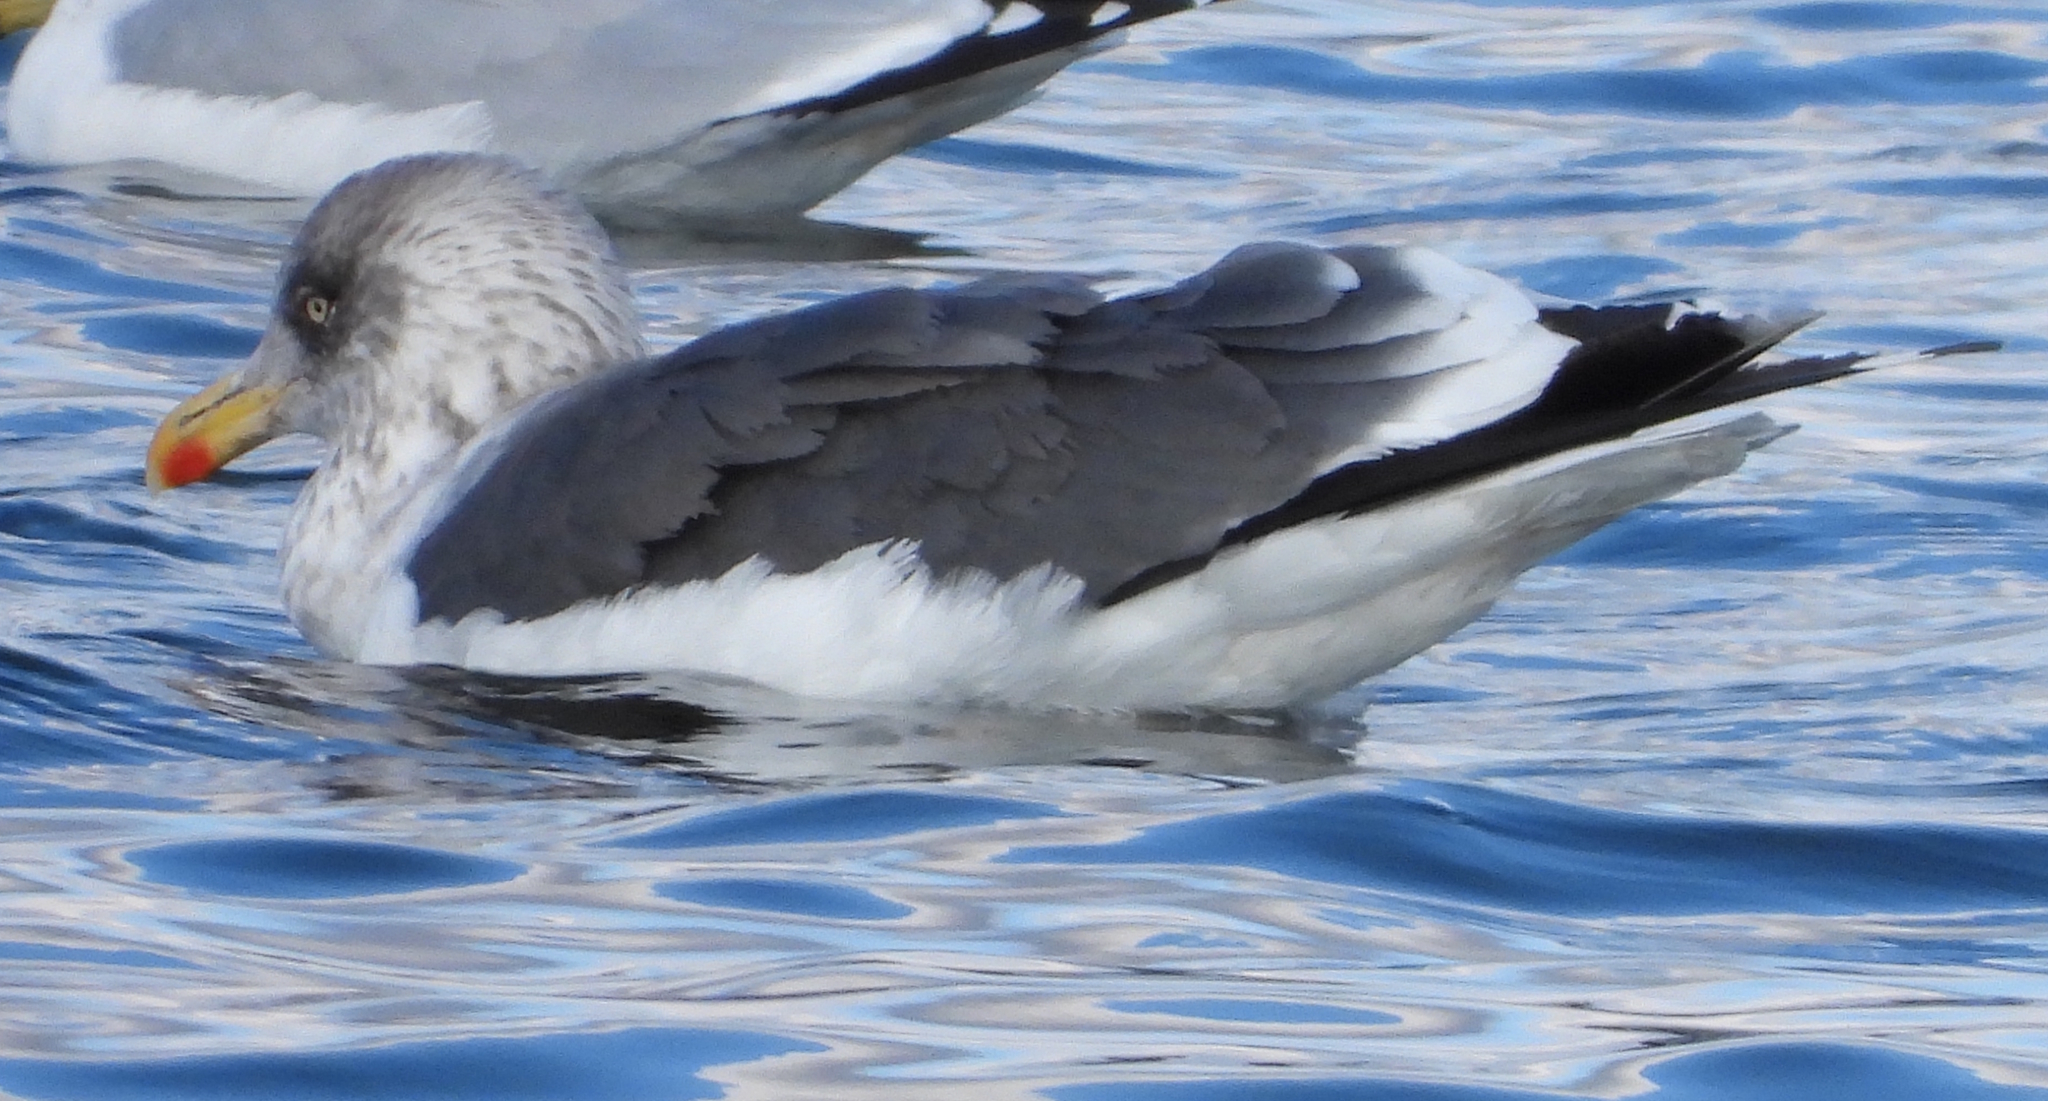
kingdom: Animalia
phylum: Chordata
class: Aves
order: Charadriiformes
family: Laridae
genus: Larus
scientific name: Larus fuscus
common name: Lesser black-backed gull
